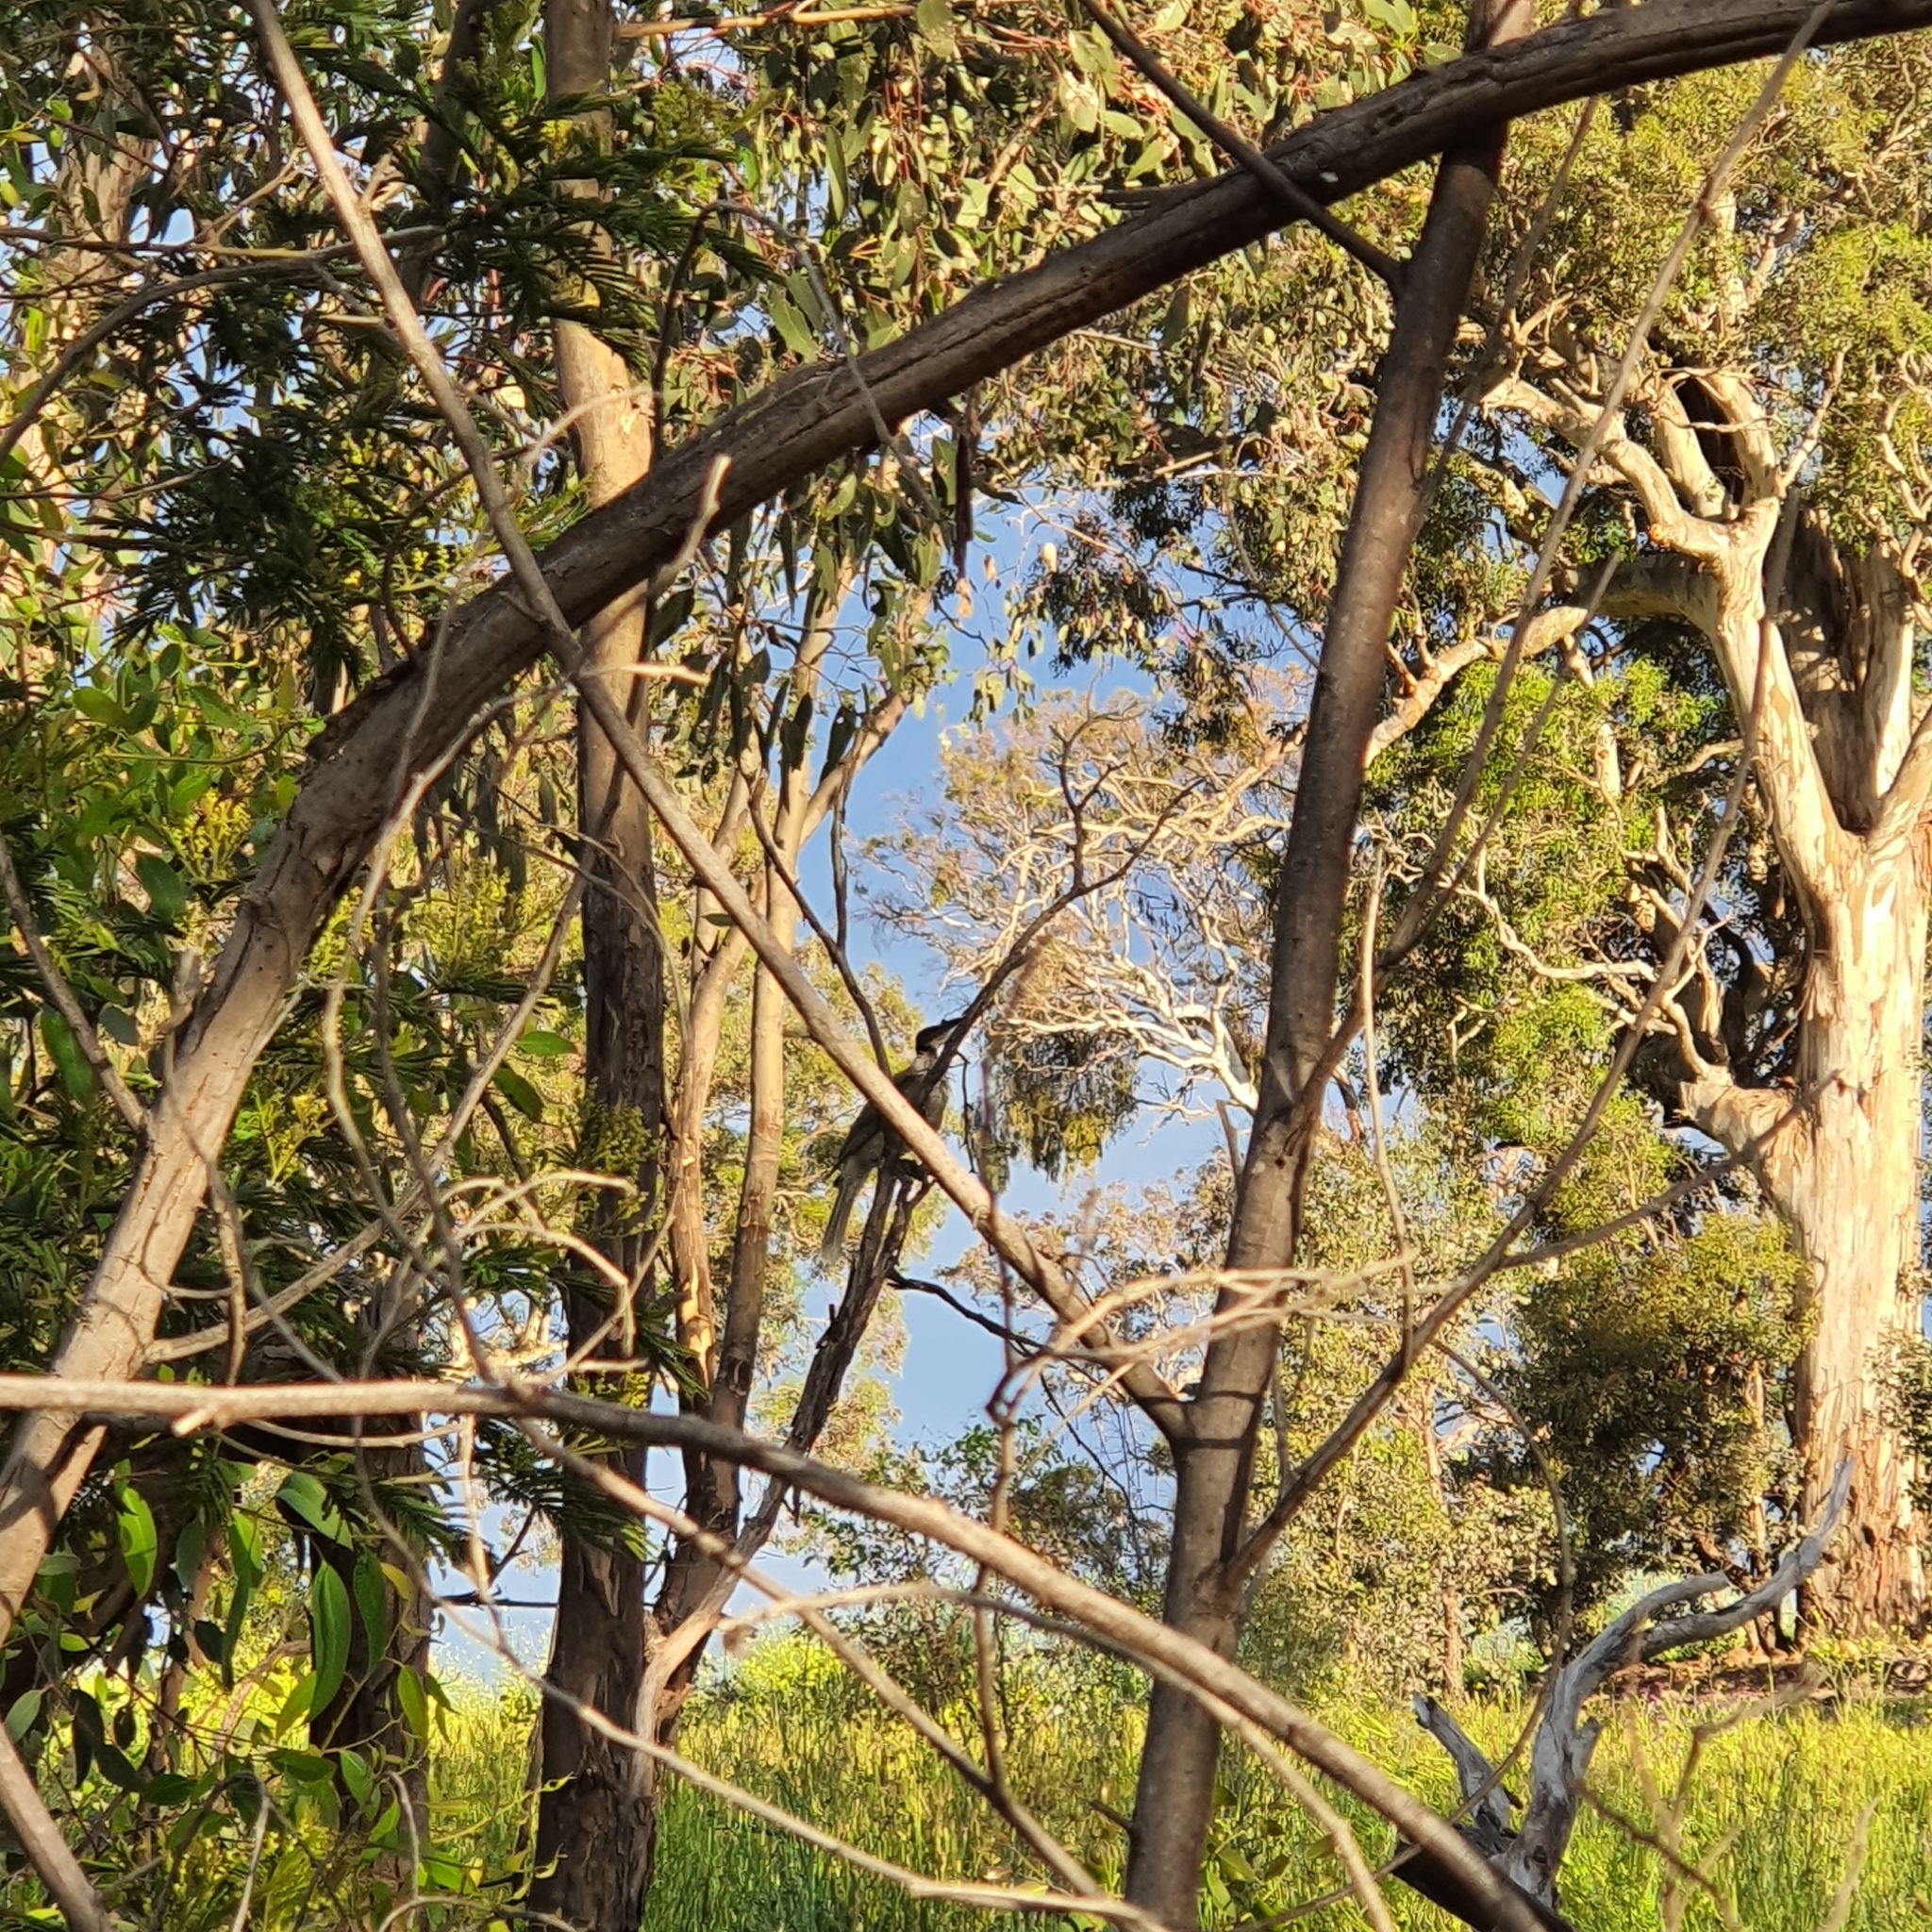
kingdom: Animalia
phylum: Chordata
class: Aves
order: Passeriformes
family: Meliphagidae
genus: Philemon
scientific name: Philemon corniculatus
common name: Noisy friarbird
